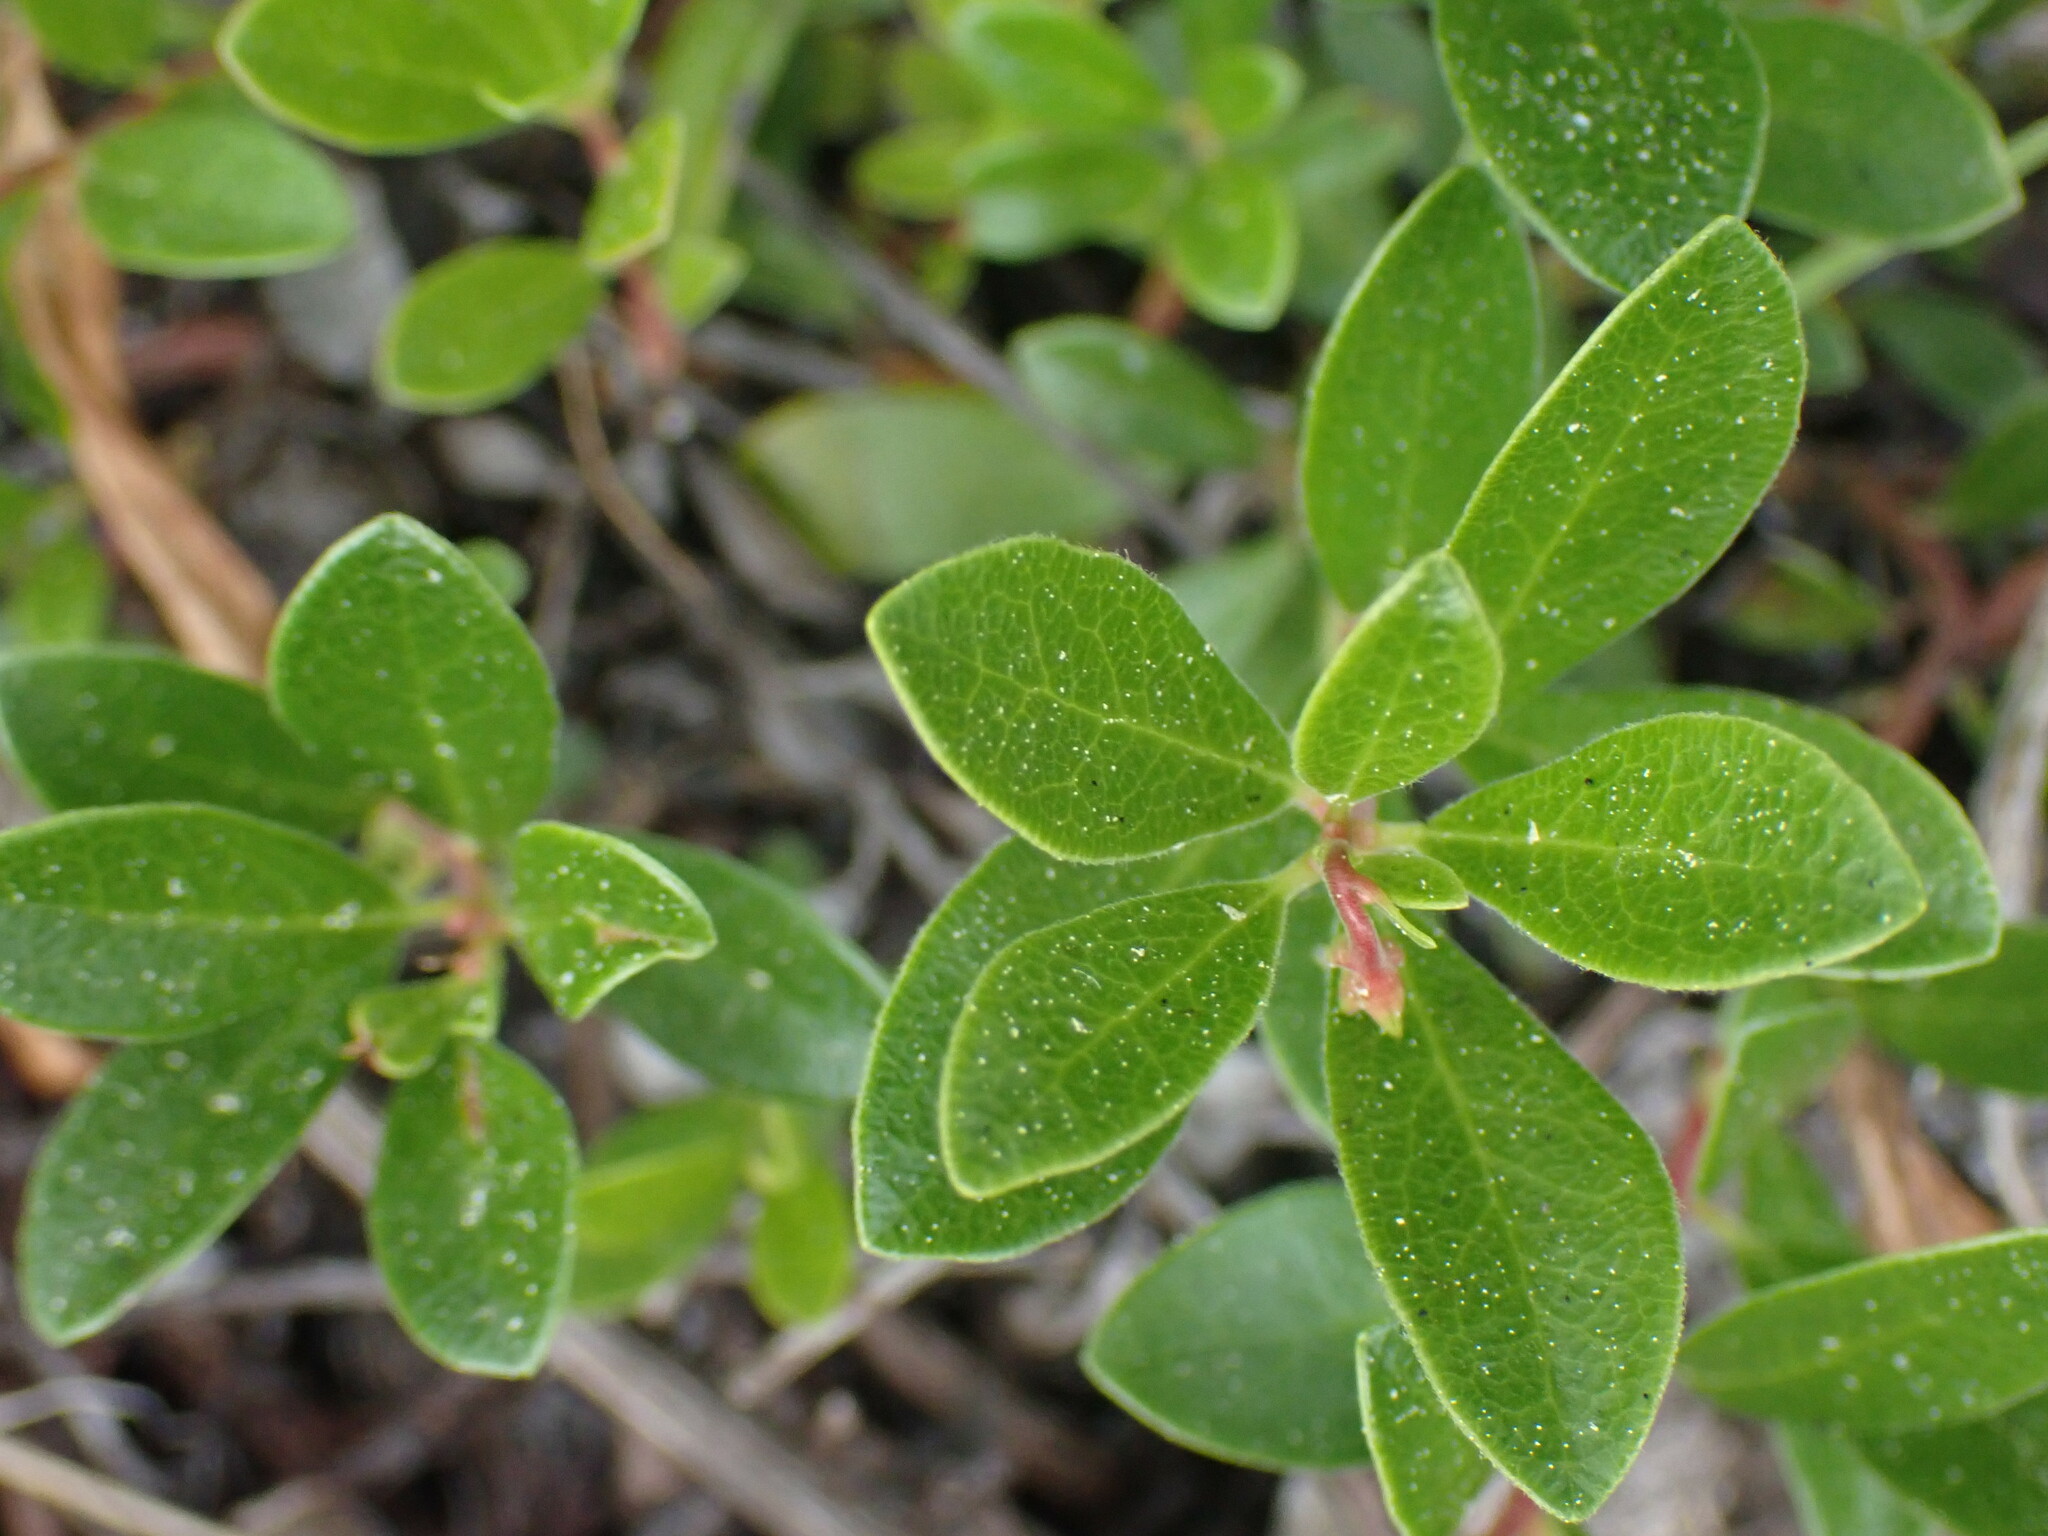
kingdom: Plantae
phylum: Tracheophyta
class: Magnoliopsida
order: Ericales
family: Ericaceae
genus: Arctostaphylos
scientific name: Arctostaphylos uva-ursi
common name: Bearberry
